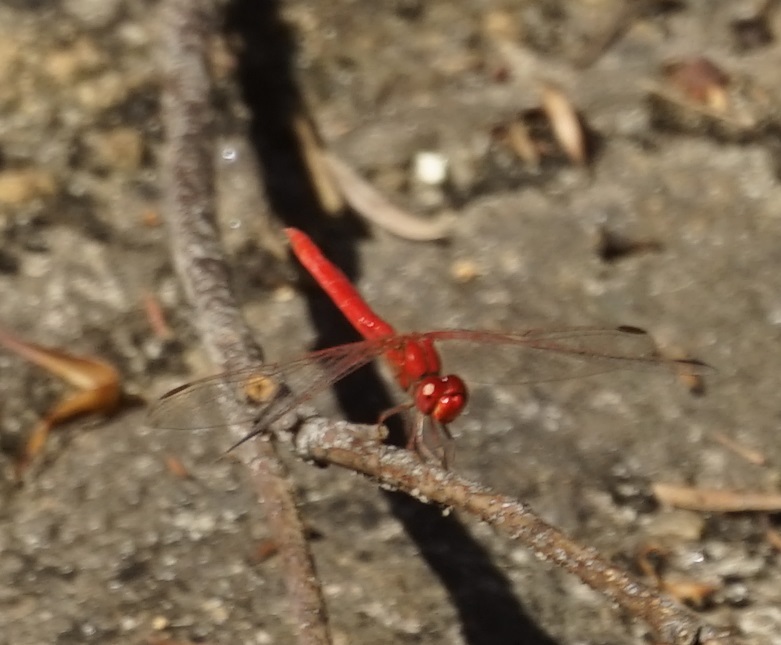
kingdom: Animalia
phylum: Arthropoda
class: Insecta
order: Odonata
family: Libellulidae
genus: Diplacodes
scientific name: Diplacodes haematodes
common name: Scarlet percher
